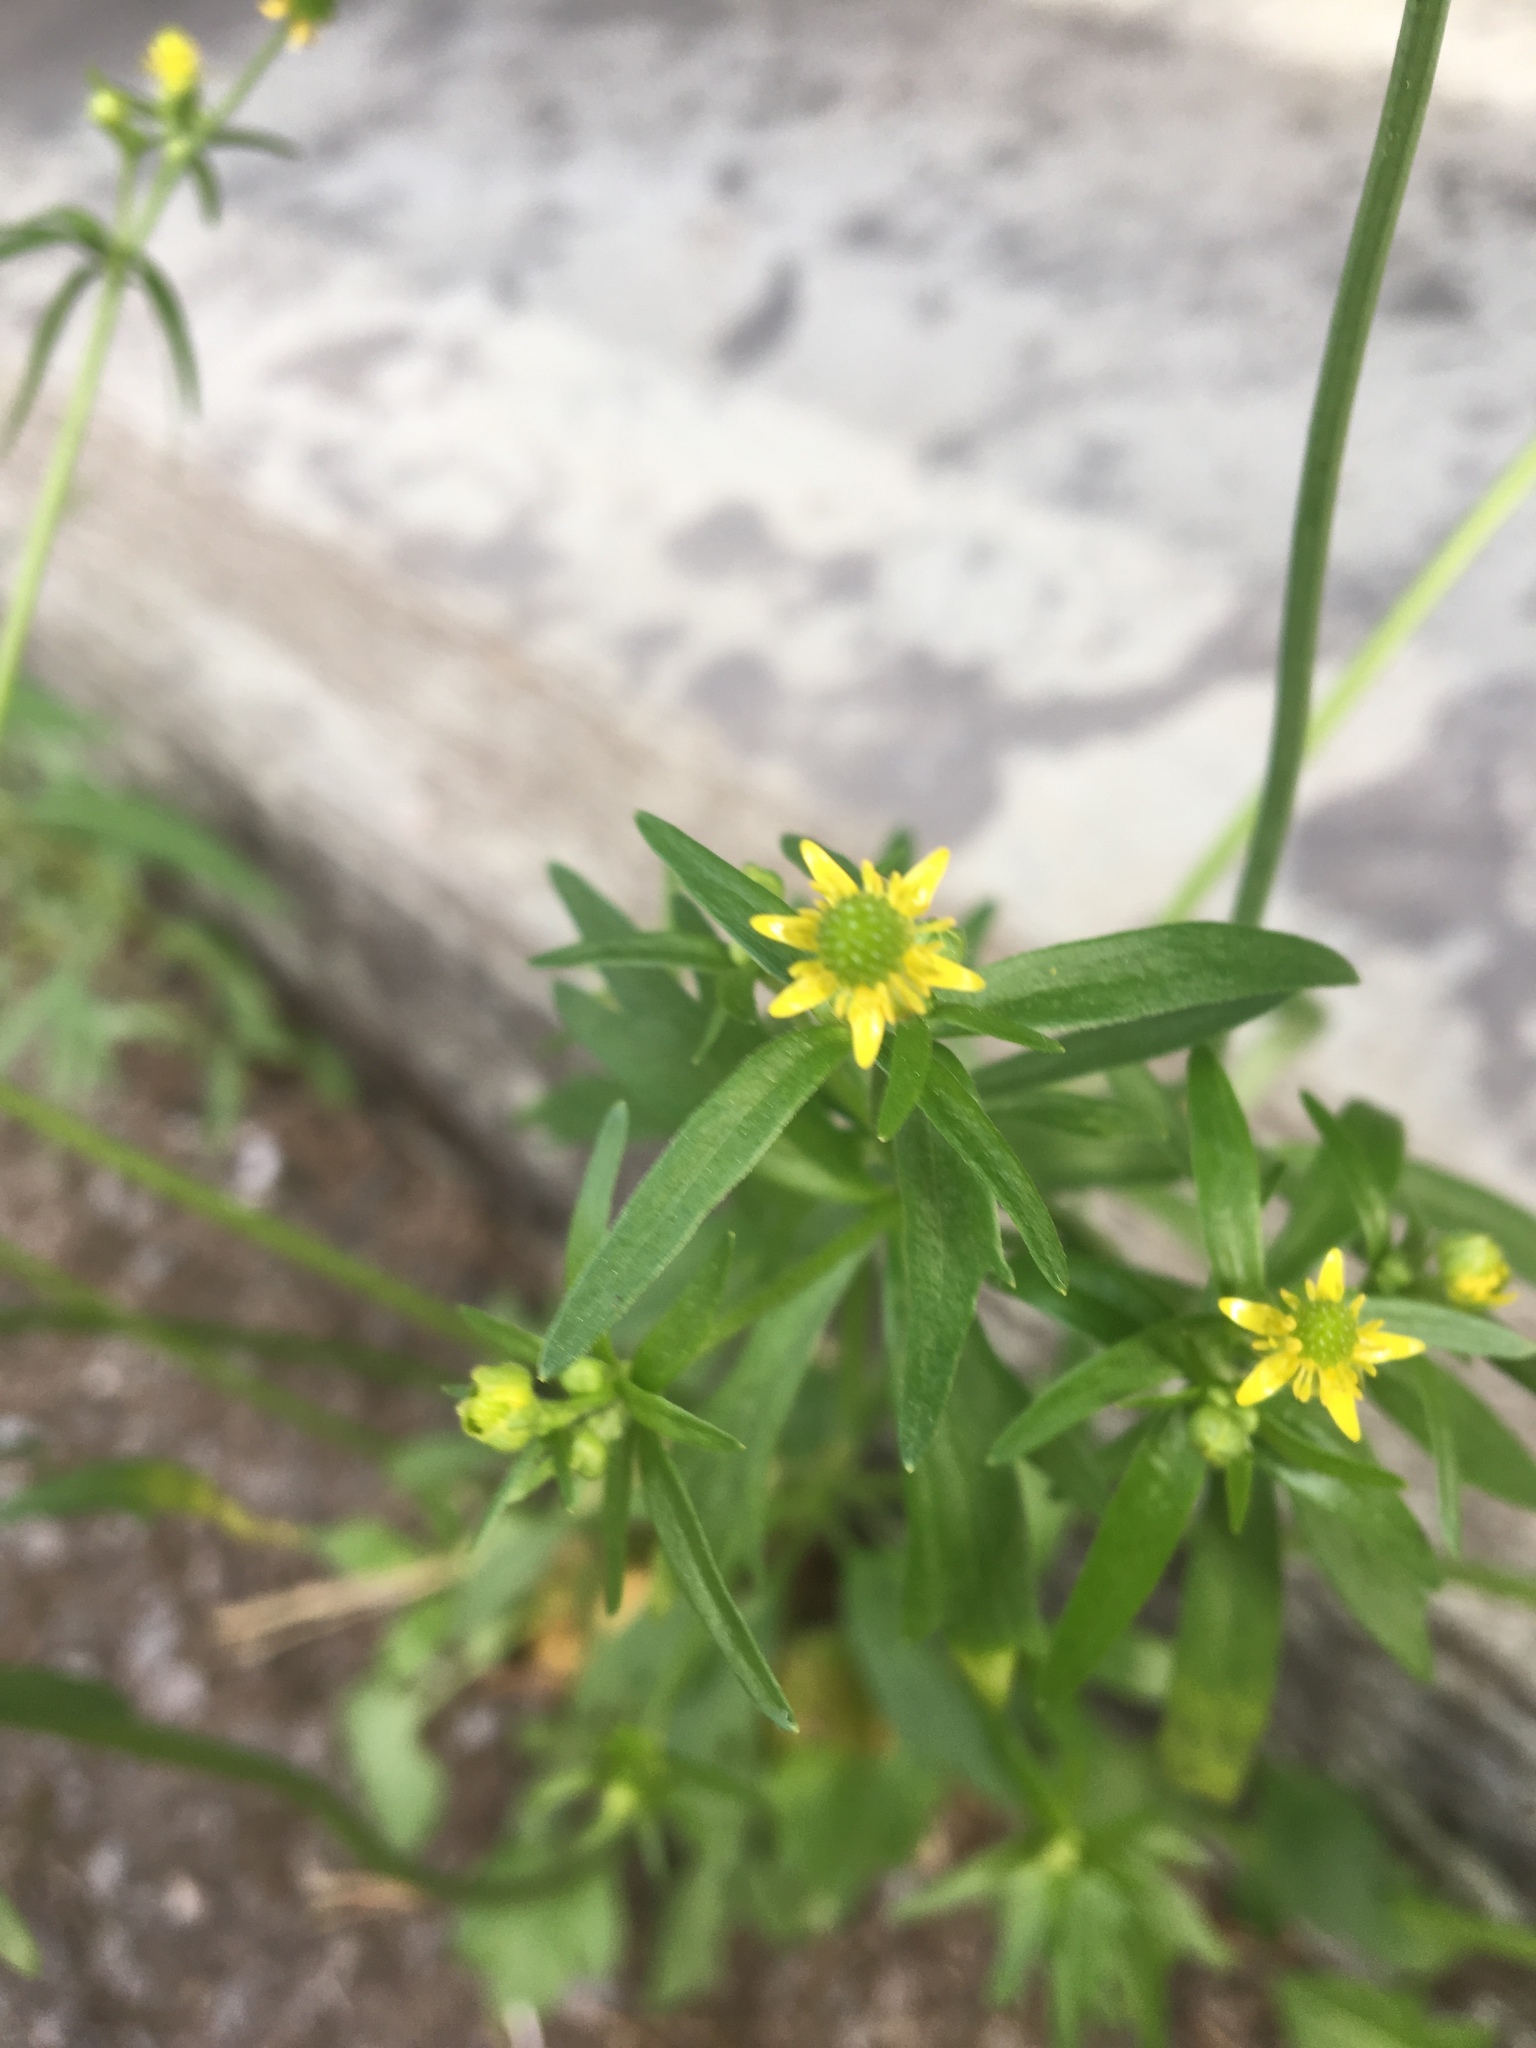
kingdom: Plantae
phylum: Tracheophyta
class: Magnoliopsida
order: Ranunculales
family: Ranunculaceae
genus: Ranunculus
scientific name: Ranunculus abortivus
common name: Early wood buttercup
